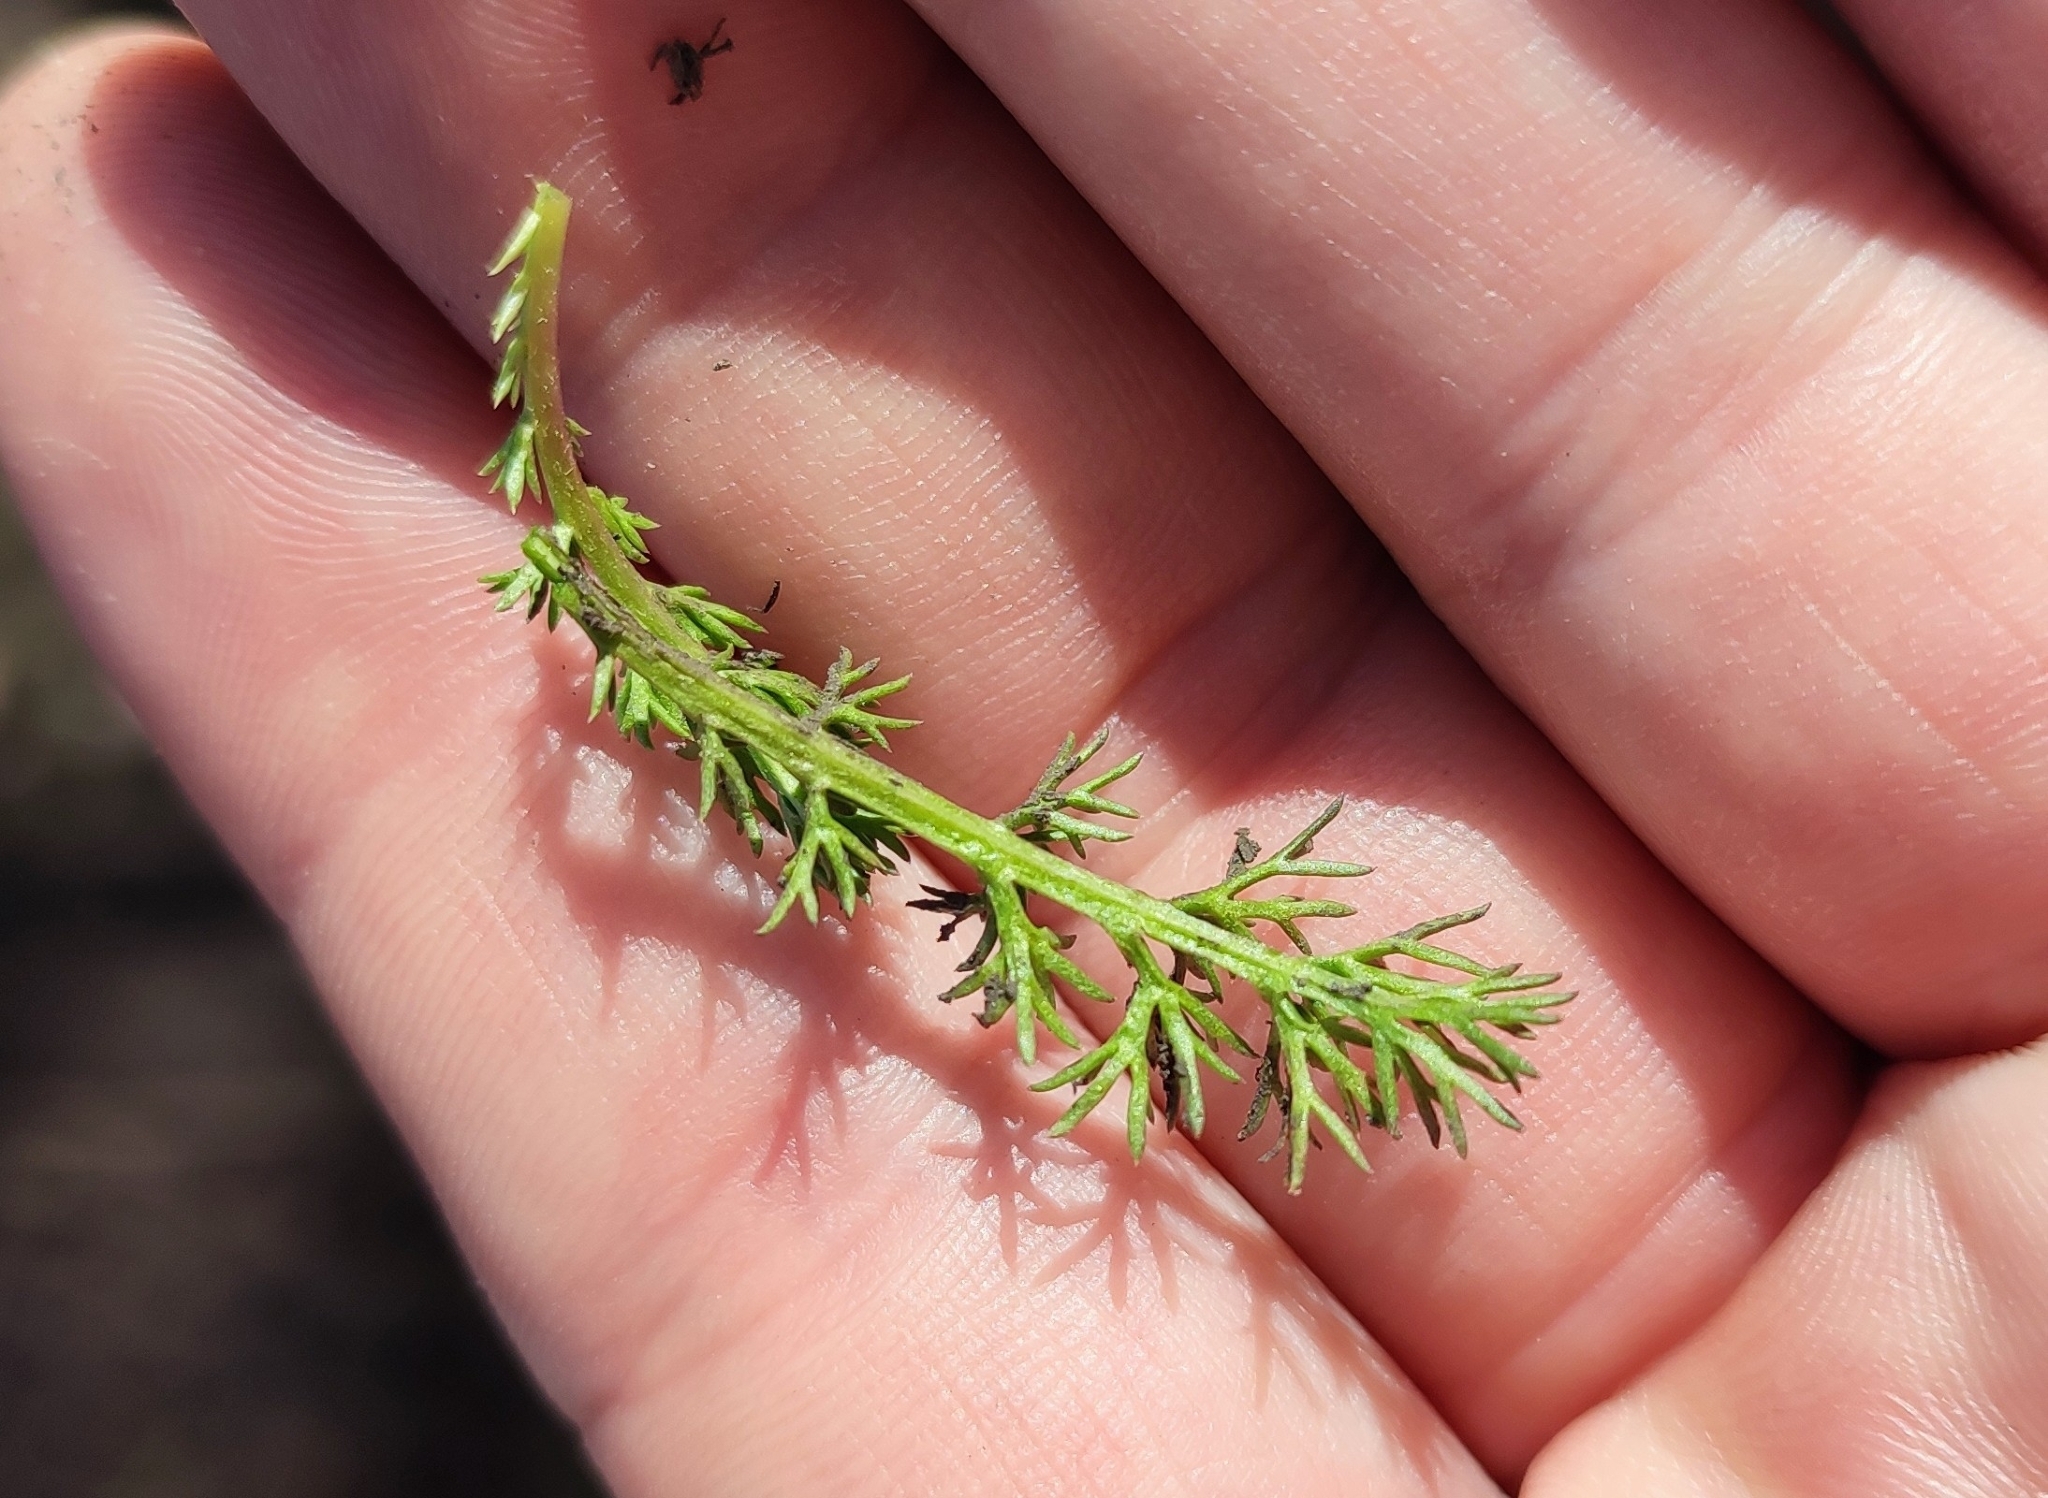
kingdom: Plantae
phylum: Tracheophyta
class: Magnoliopsida
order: Asterales
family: Asteraceae
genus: Tripleurospermum
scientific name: Tripleurospermum inodorum
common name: Scentless mayweed
